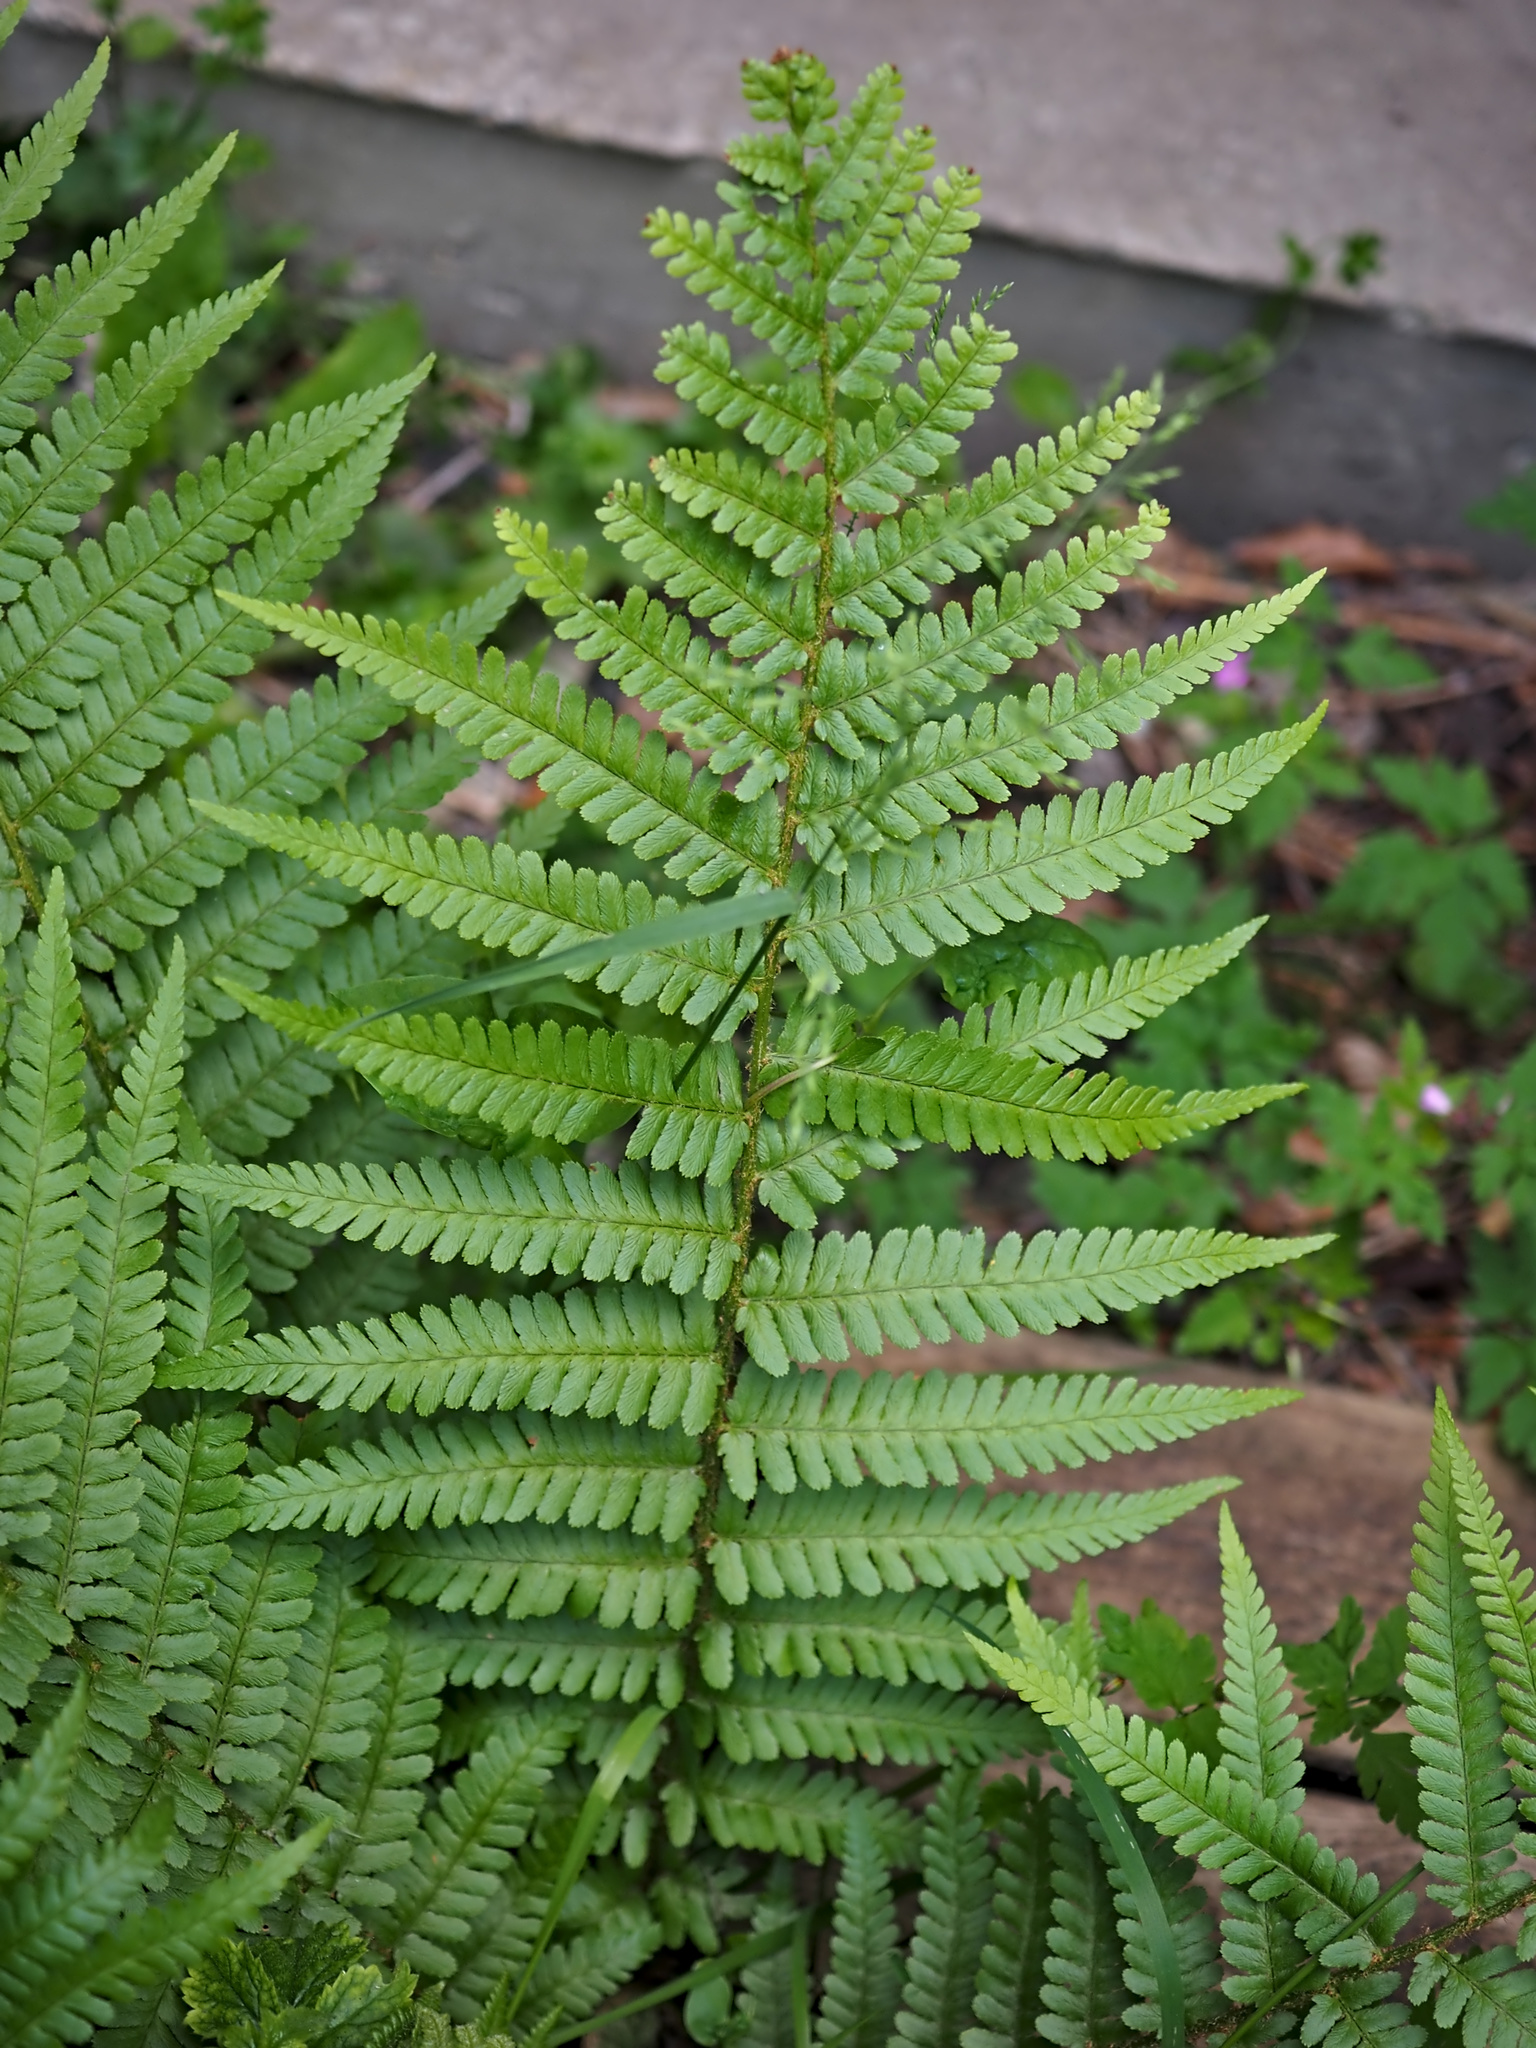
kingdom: Plantae
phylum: Tracheophyta
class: Polypodiopsida
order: Polypodiales
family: Dryopteridaceae
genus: Dryopteris
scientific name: Dryopteris filix-mas
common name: Male fern
